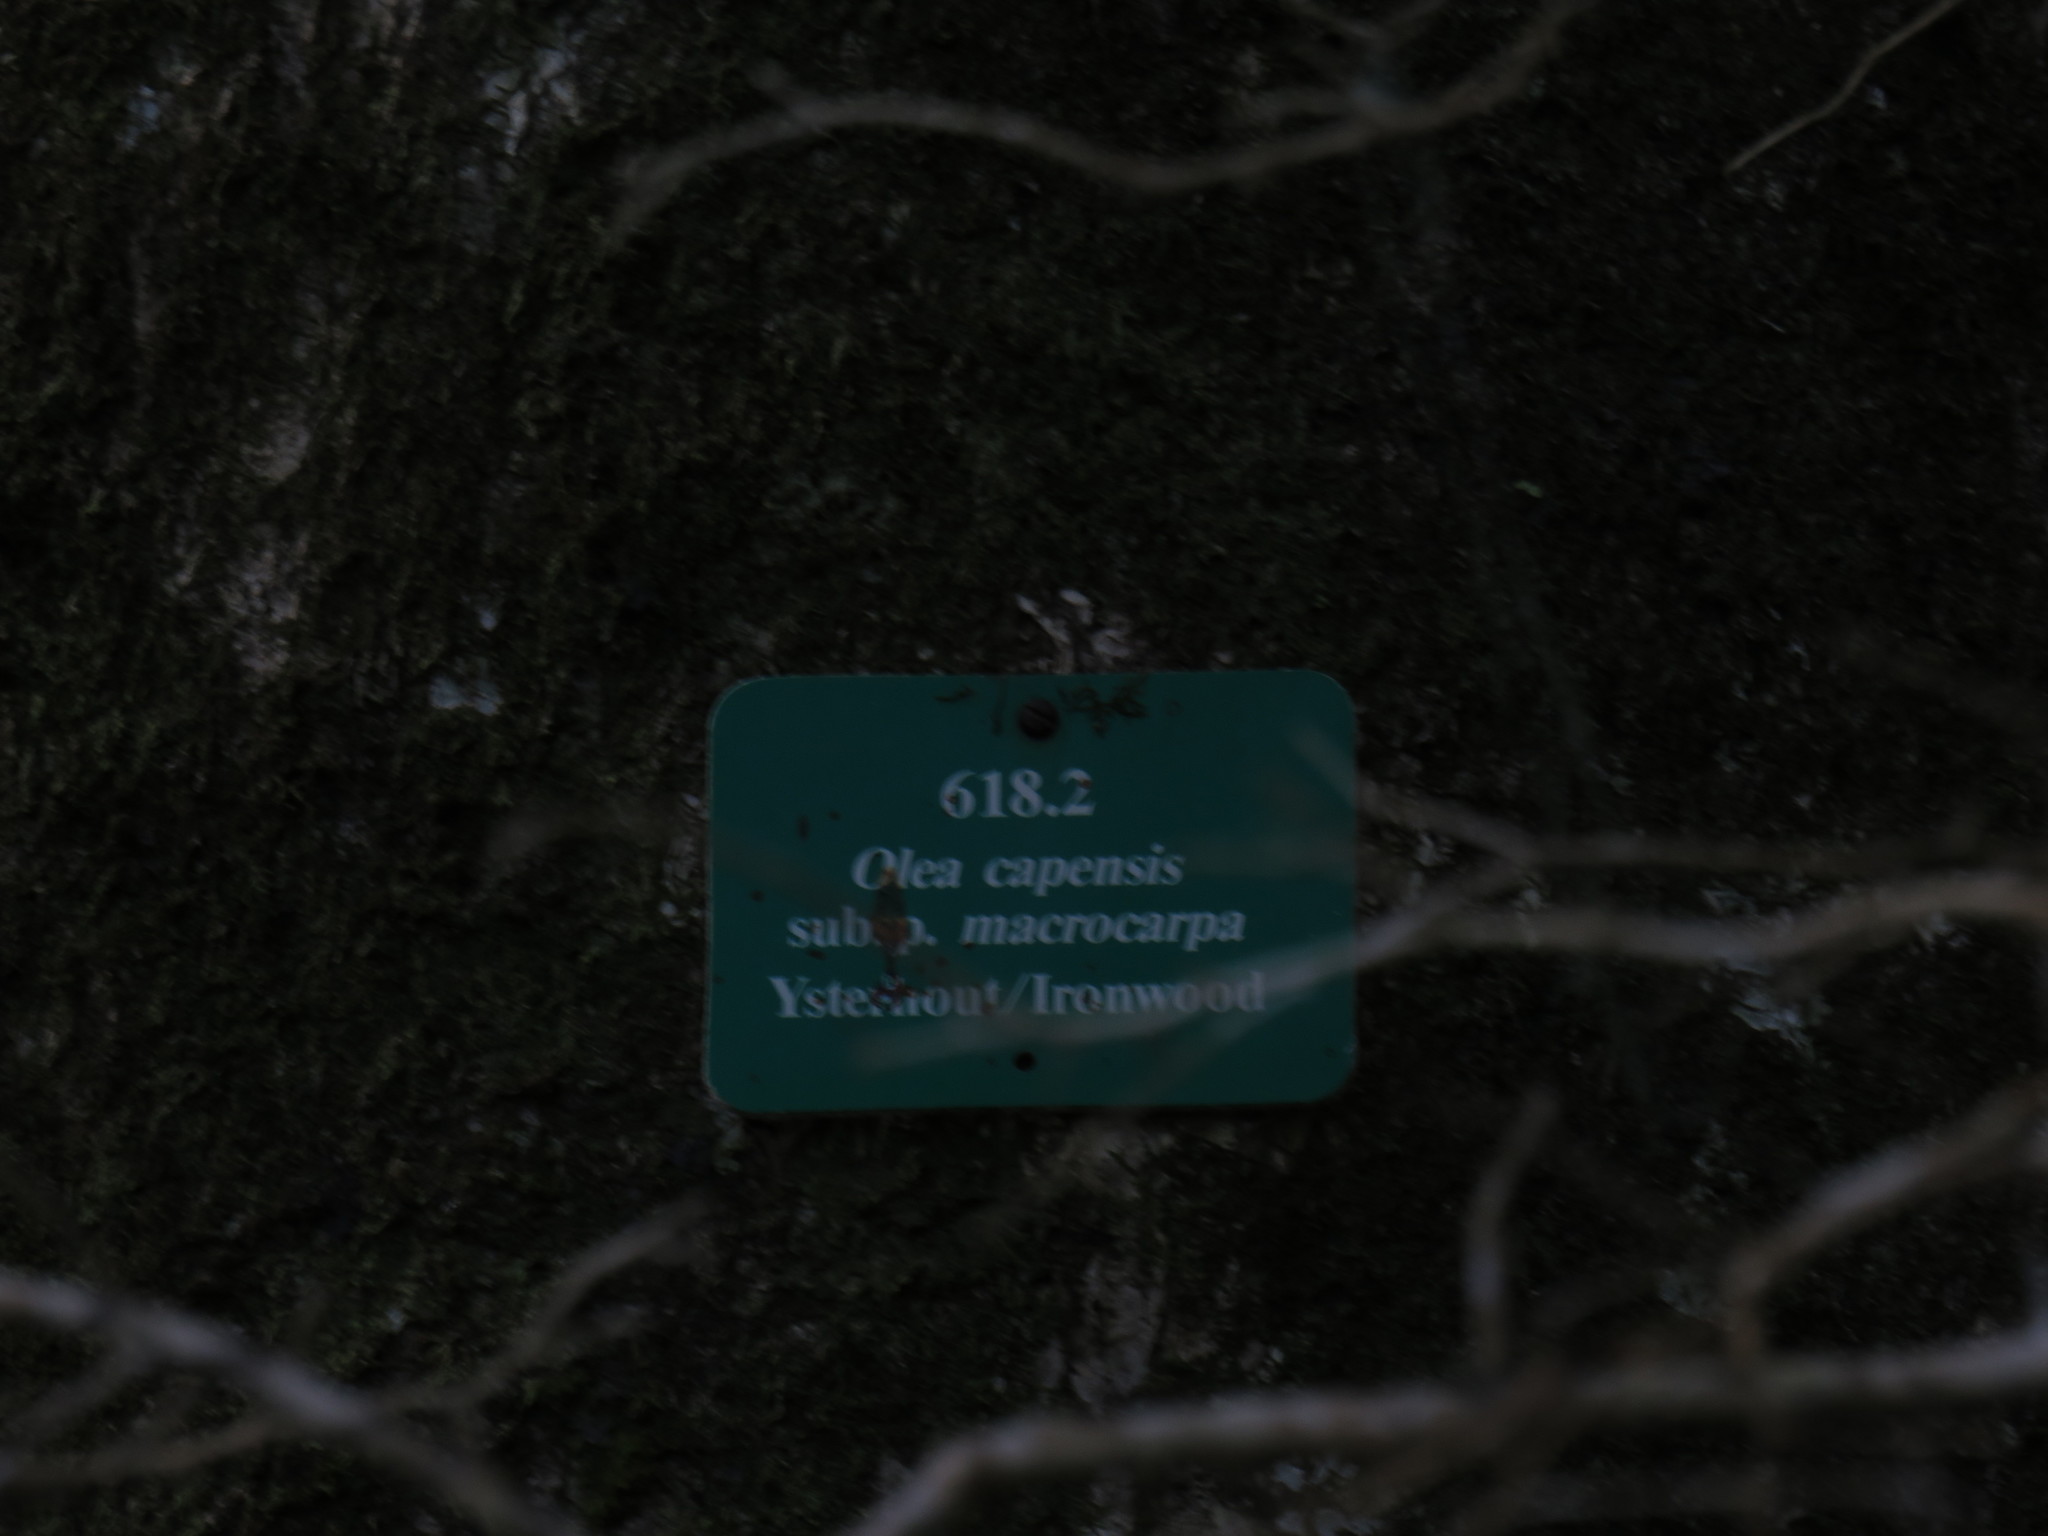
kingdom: Plantae
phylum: Tracheophyta
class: Magnoliopsida
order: Lamiales
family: Oleaceae
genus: Olea
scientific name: Olea capensis
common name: Black ironwood
